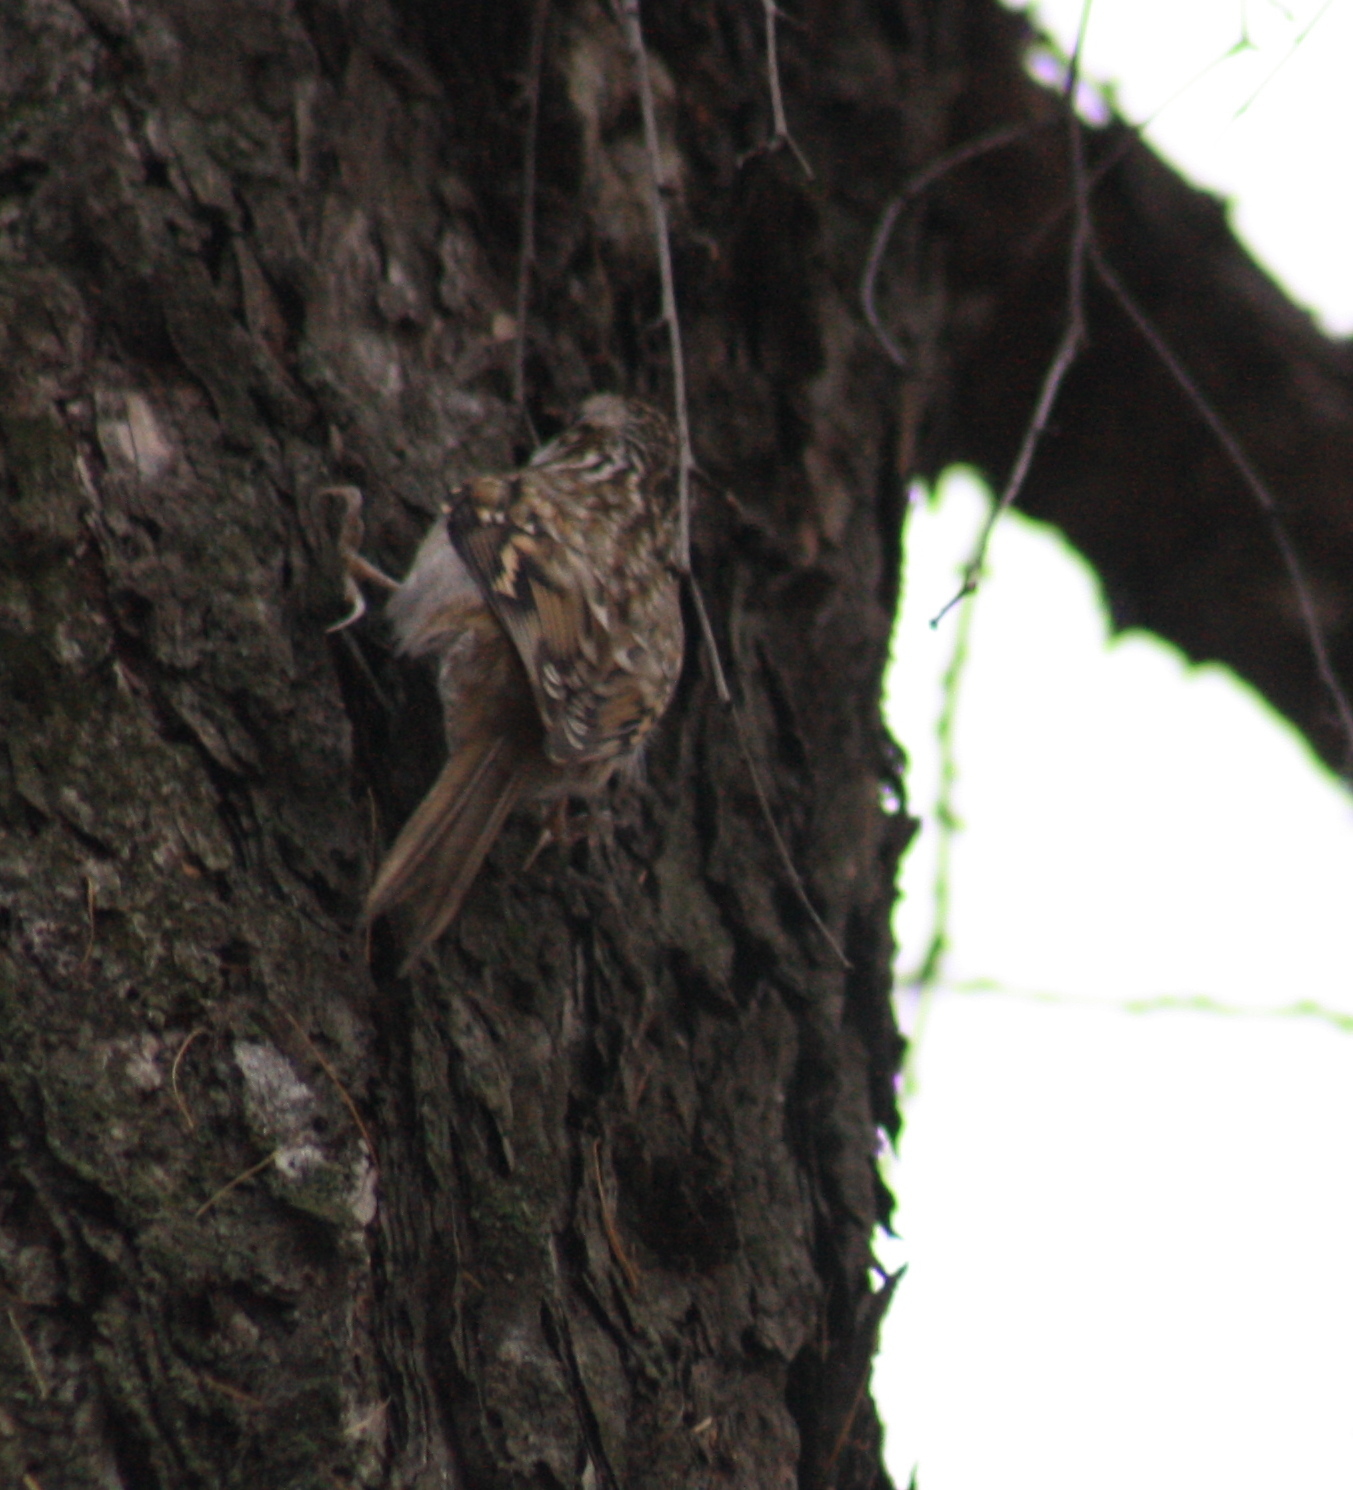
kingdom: Animalia
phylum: Chordata
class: Aves
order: Passeriformes
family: Certhiidae
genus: Certhia
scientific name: Certhia familiaris
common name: Eurasian treecreeper
